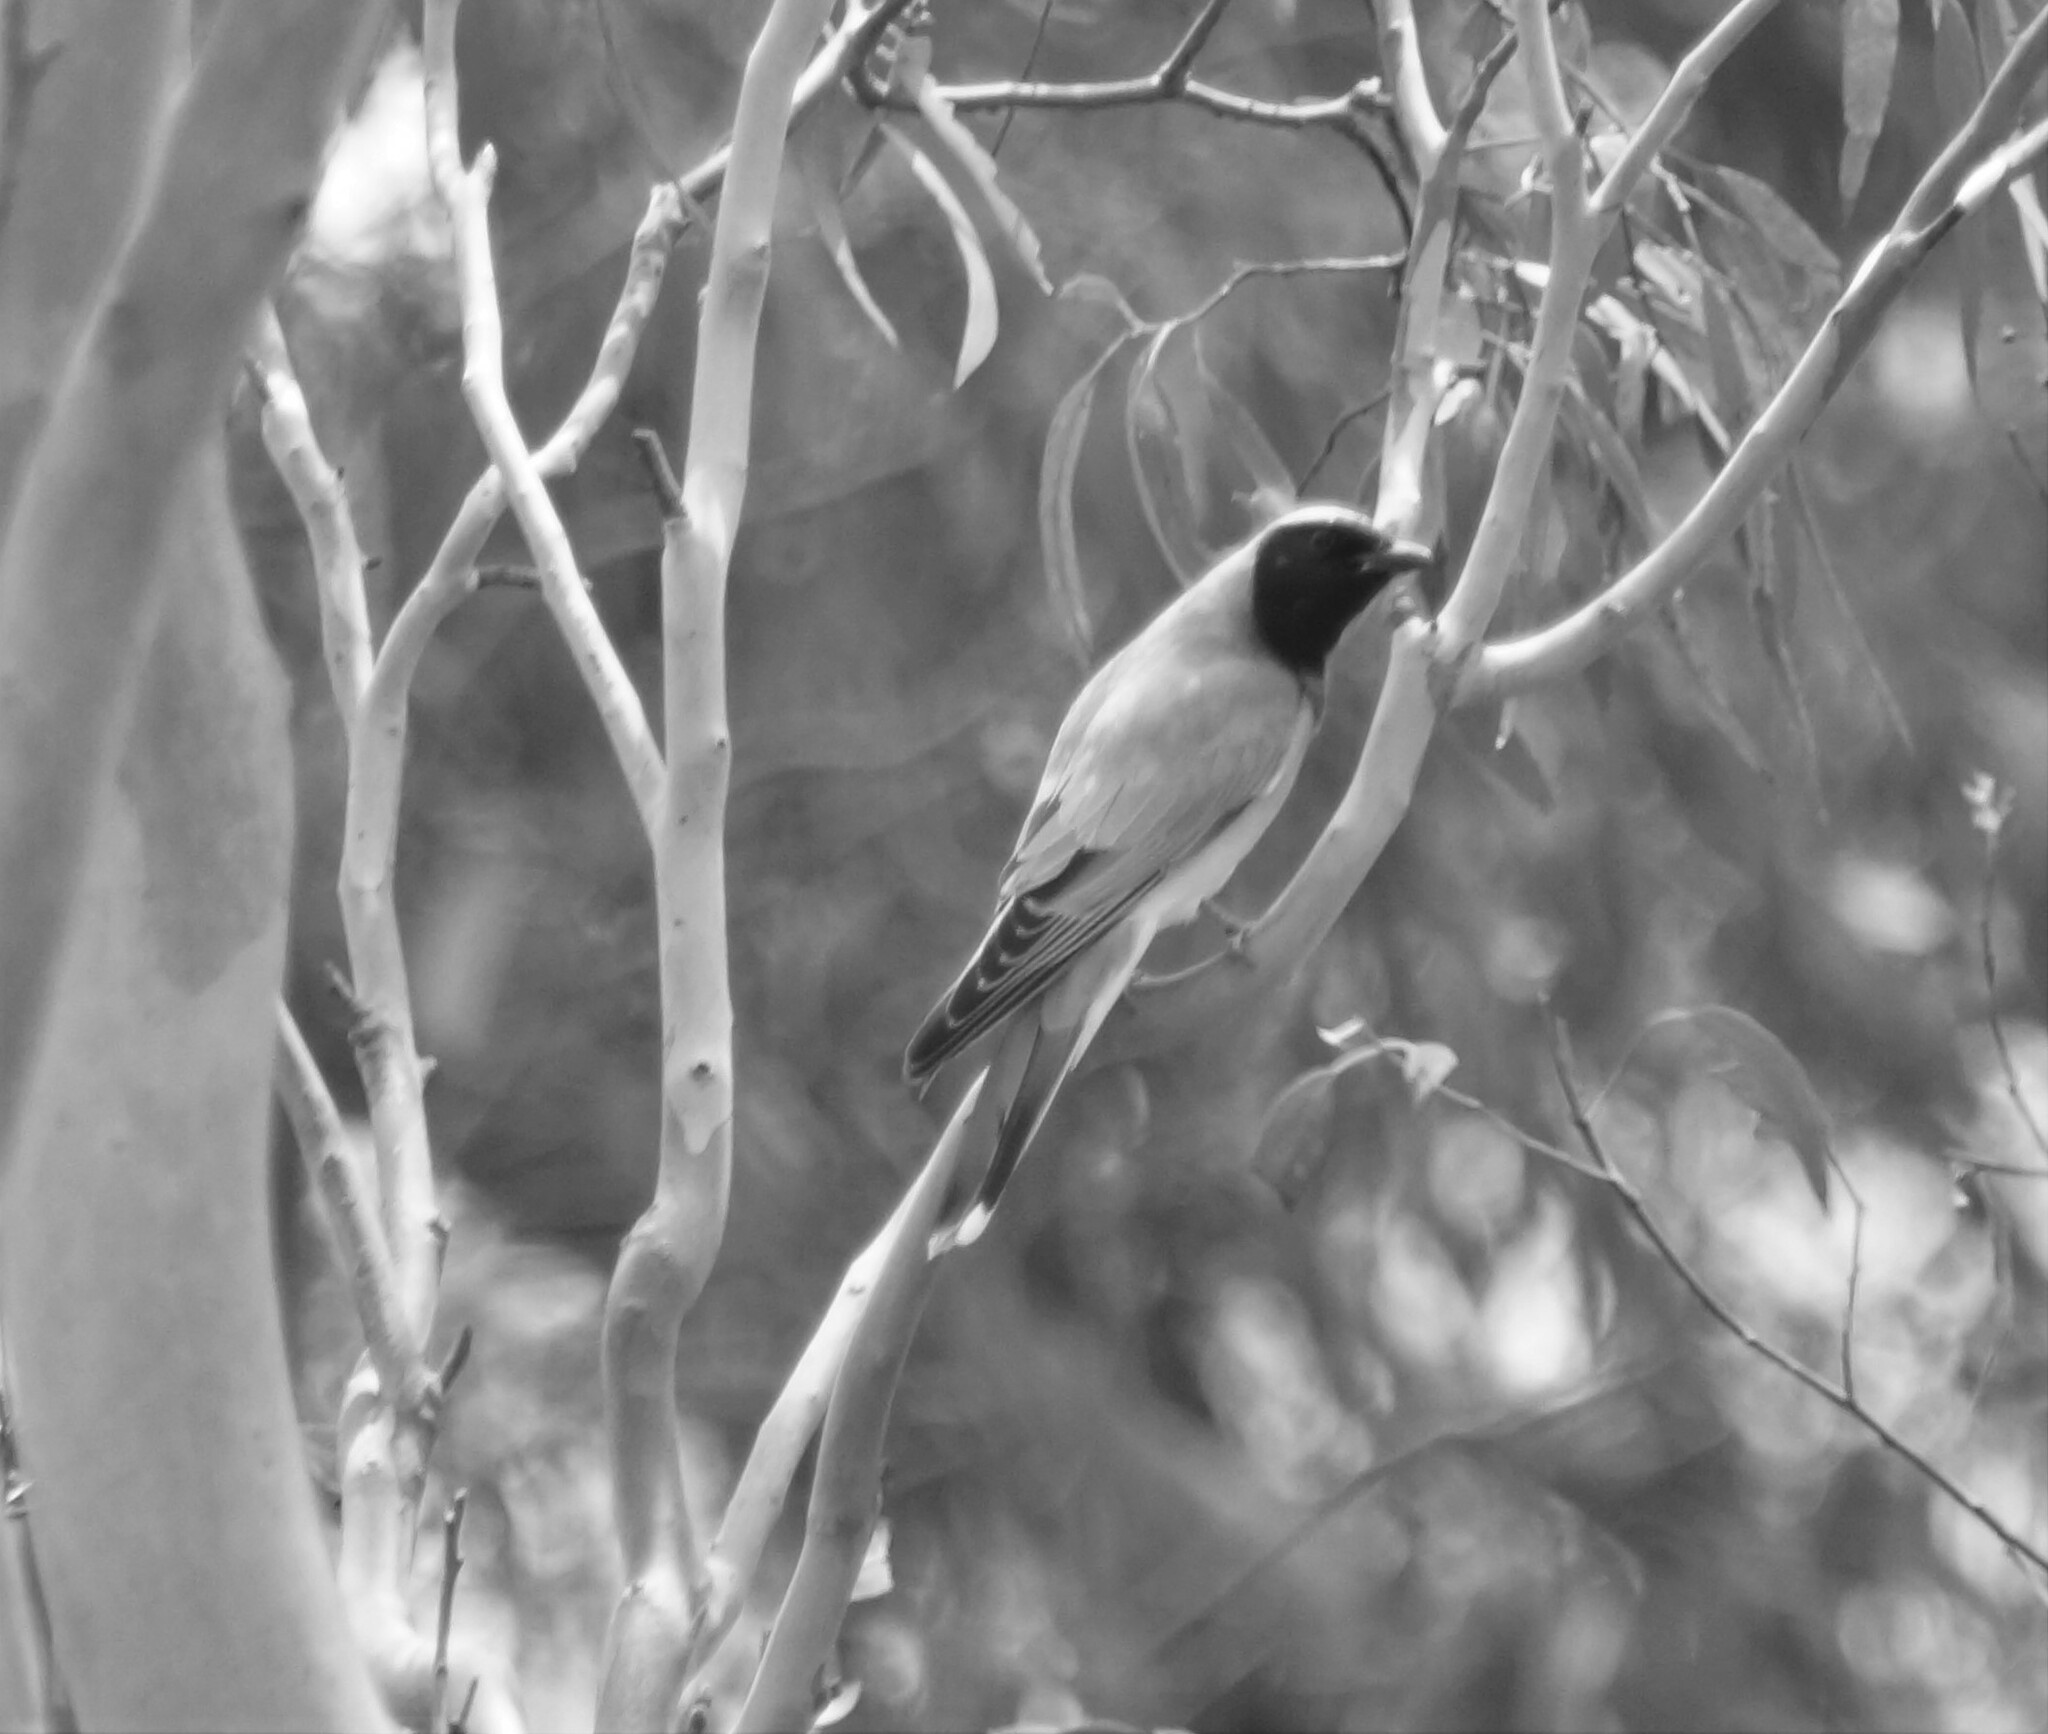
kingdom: Animalia
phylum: Chordata
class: Aves
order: Passeriformes
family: Campephagidae
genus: Coracina
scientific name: Coracina novaehollandiae
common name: Black-faced cuckooshrike
